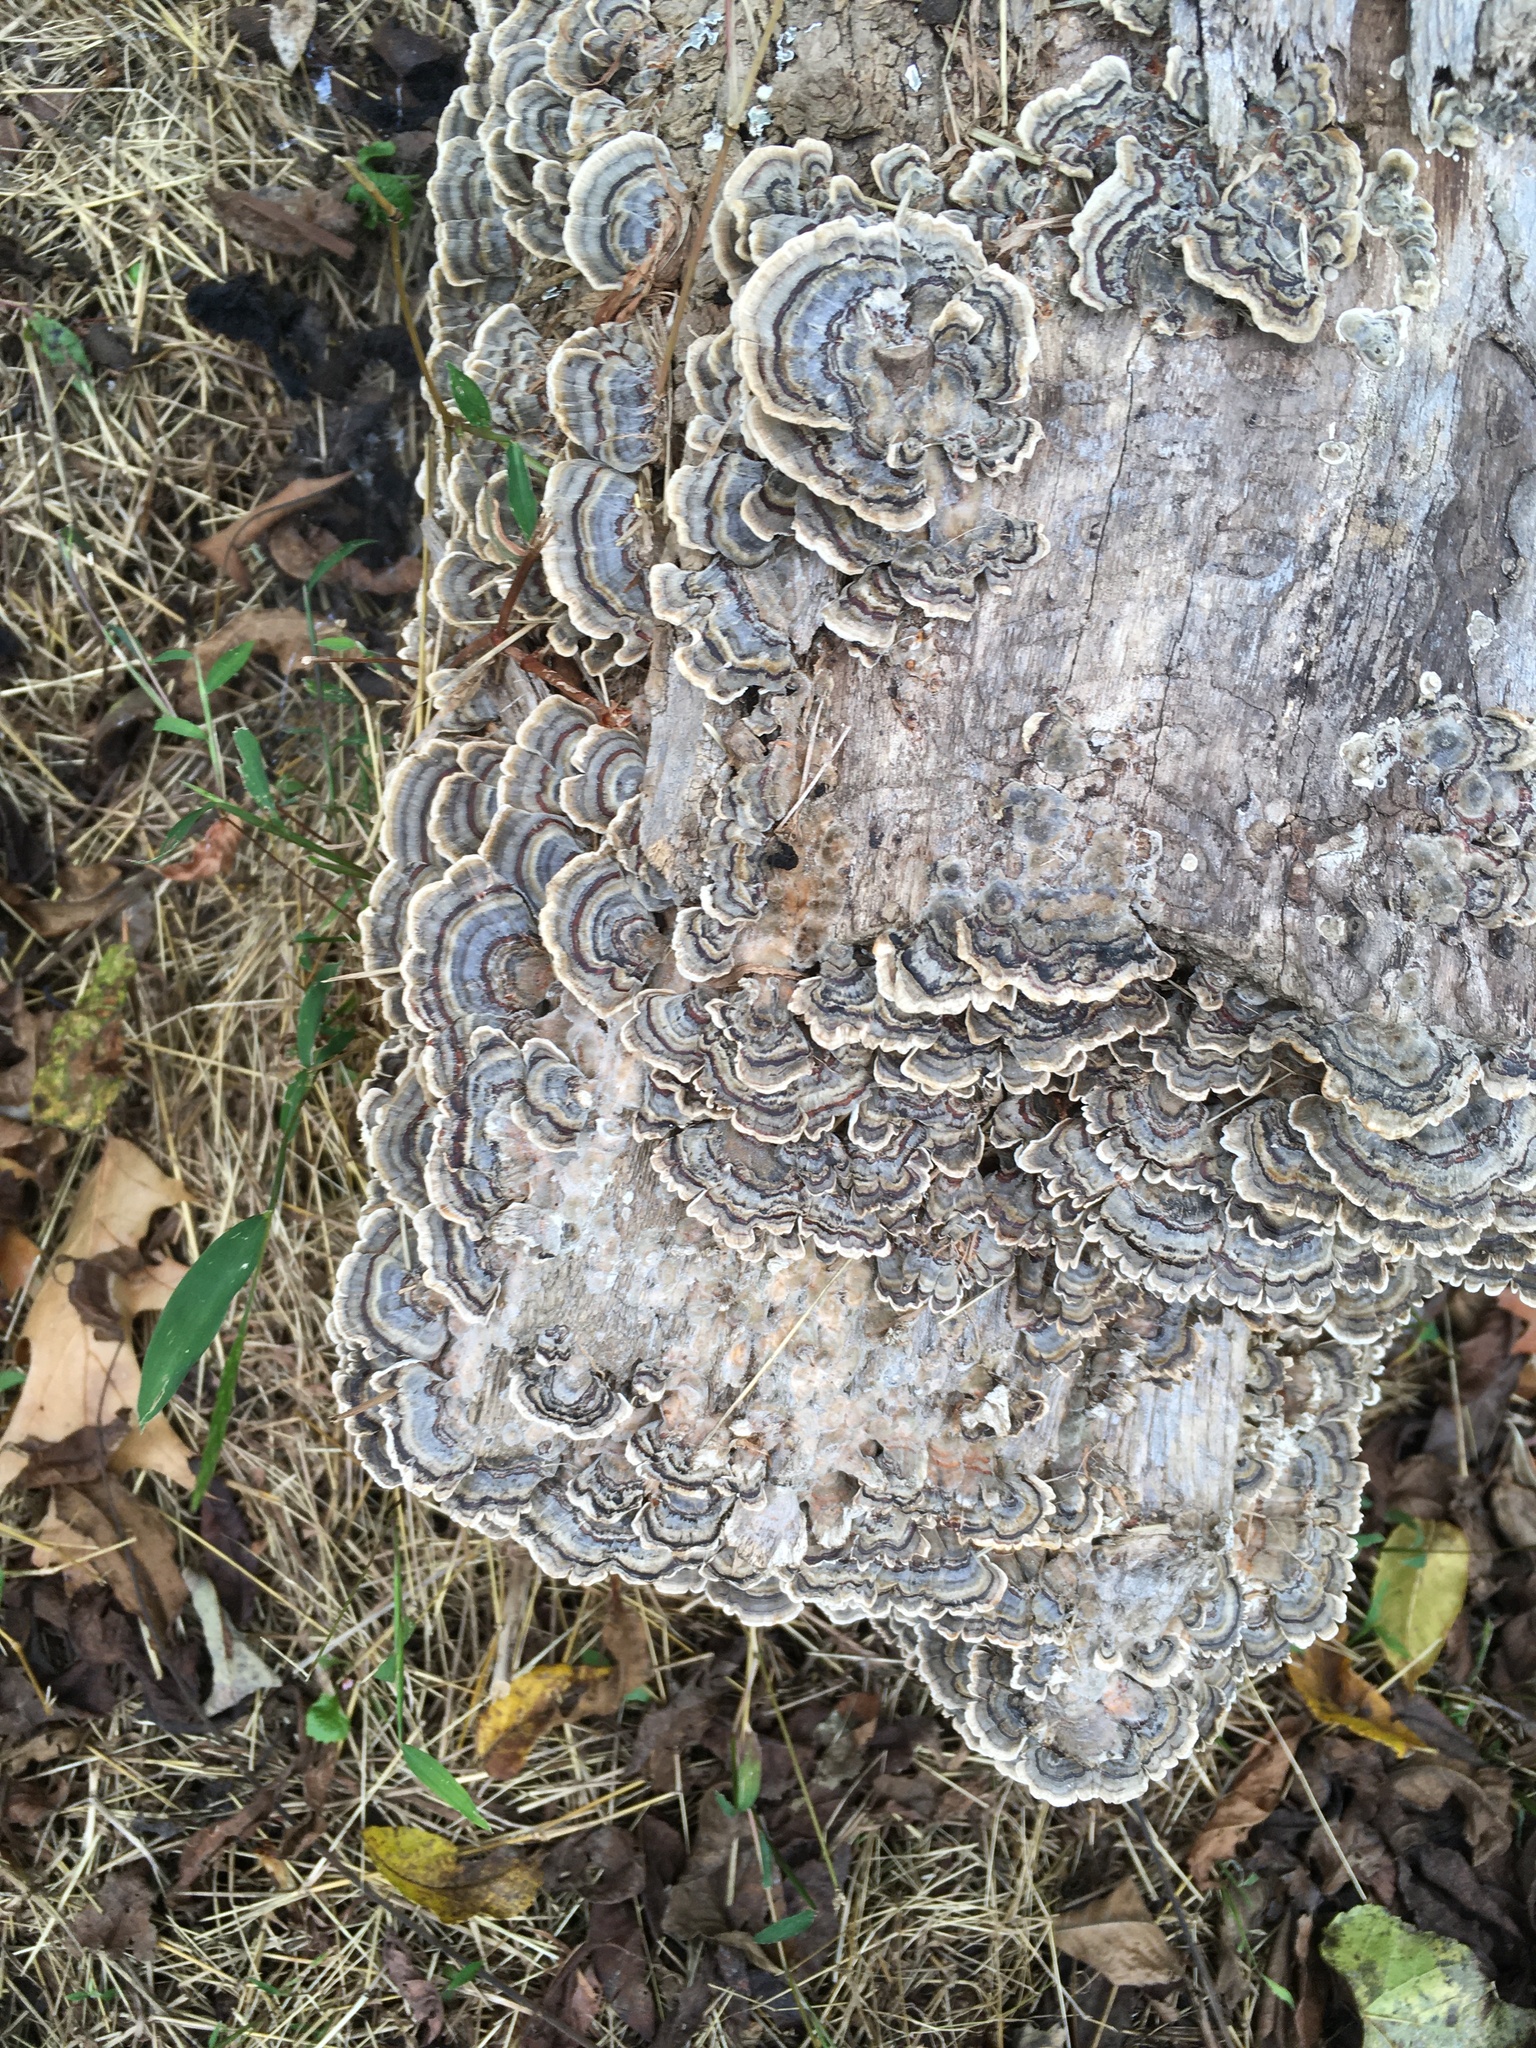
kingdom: Fungi
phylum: Basidiomycota
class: Agaricomycetes
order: Polyporales
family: Polyporaceae
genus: Trametes
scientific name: Trametes versicolor
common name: Turkeytail
